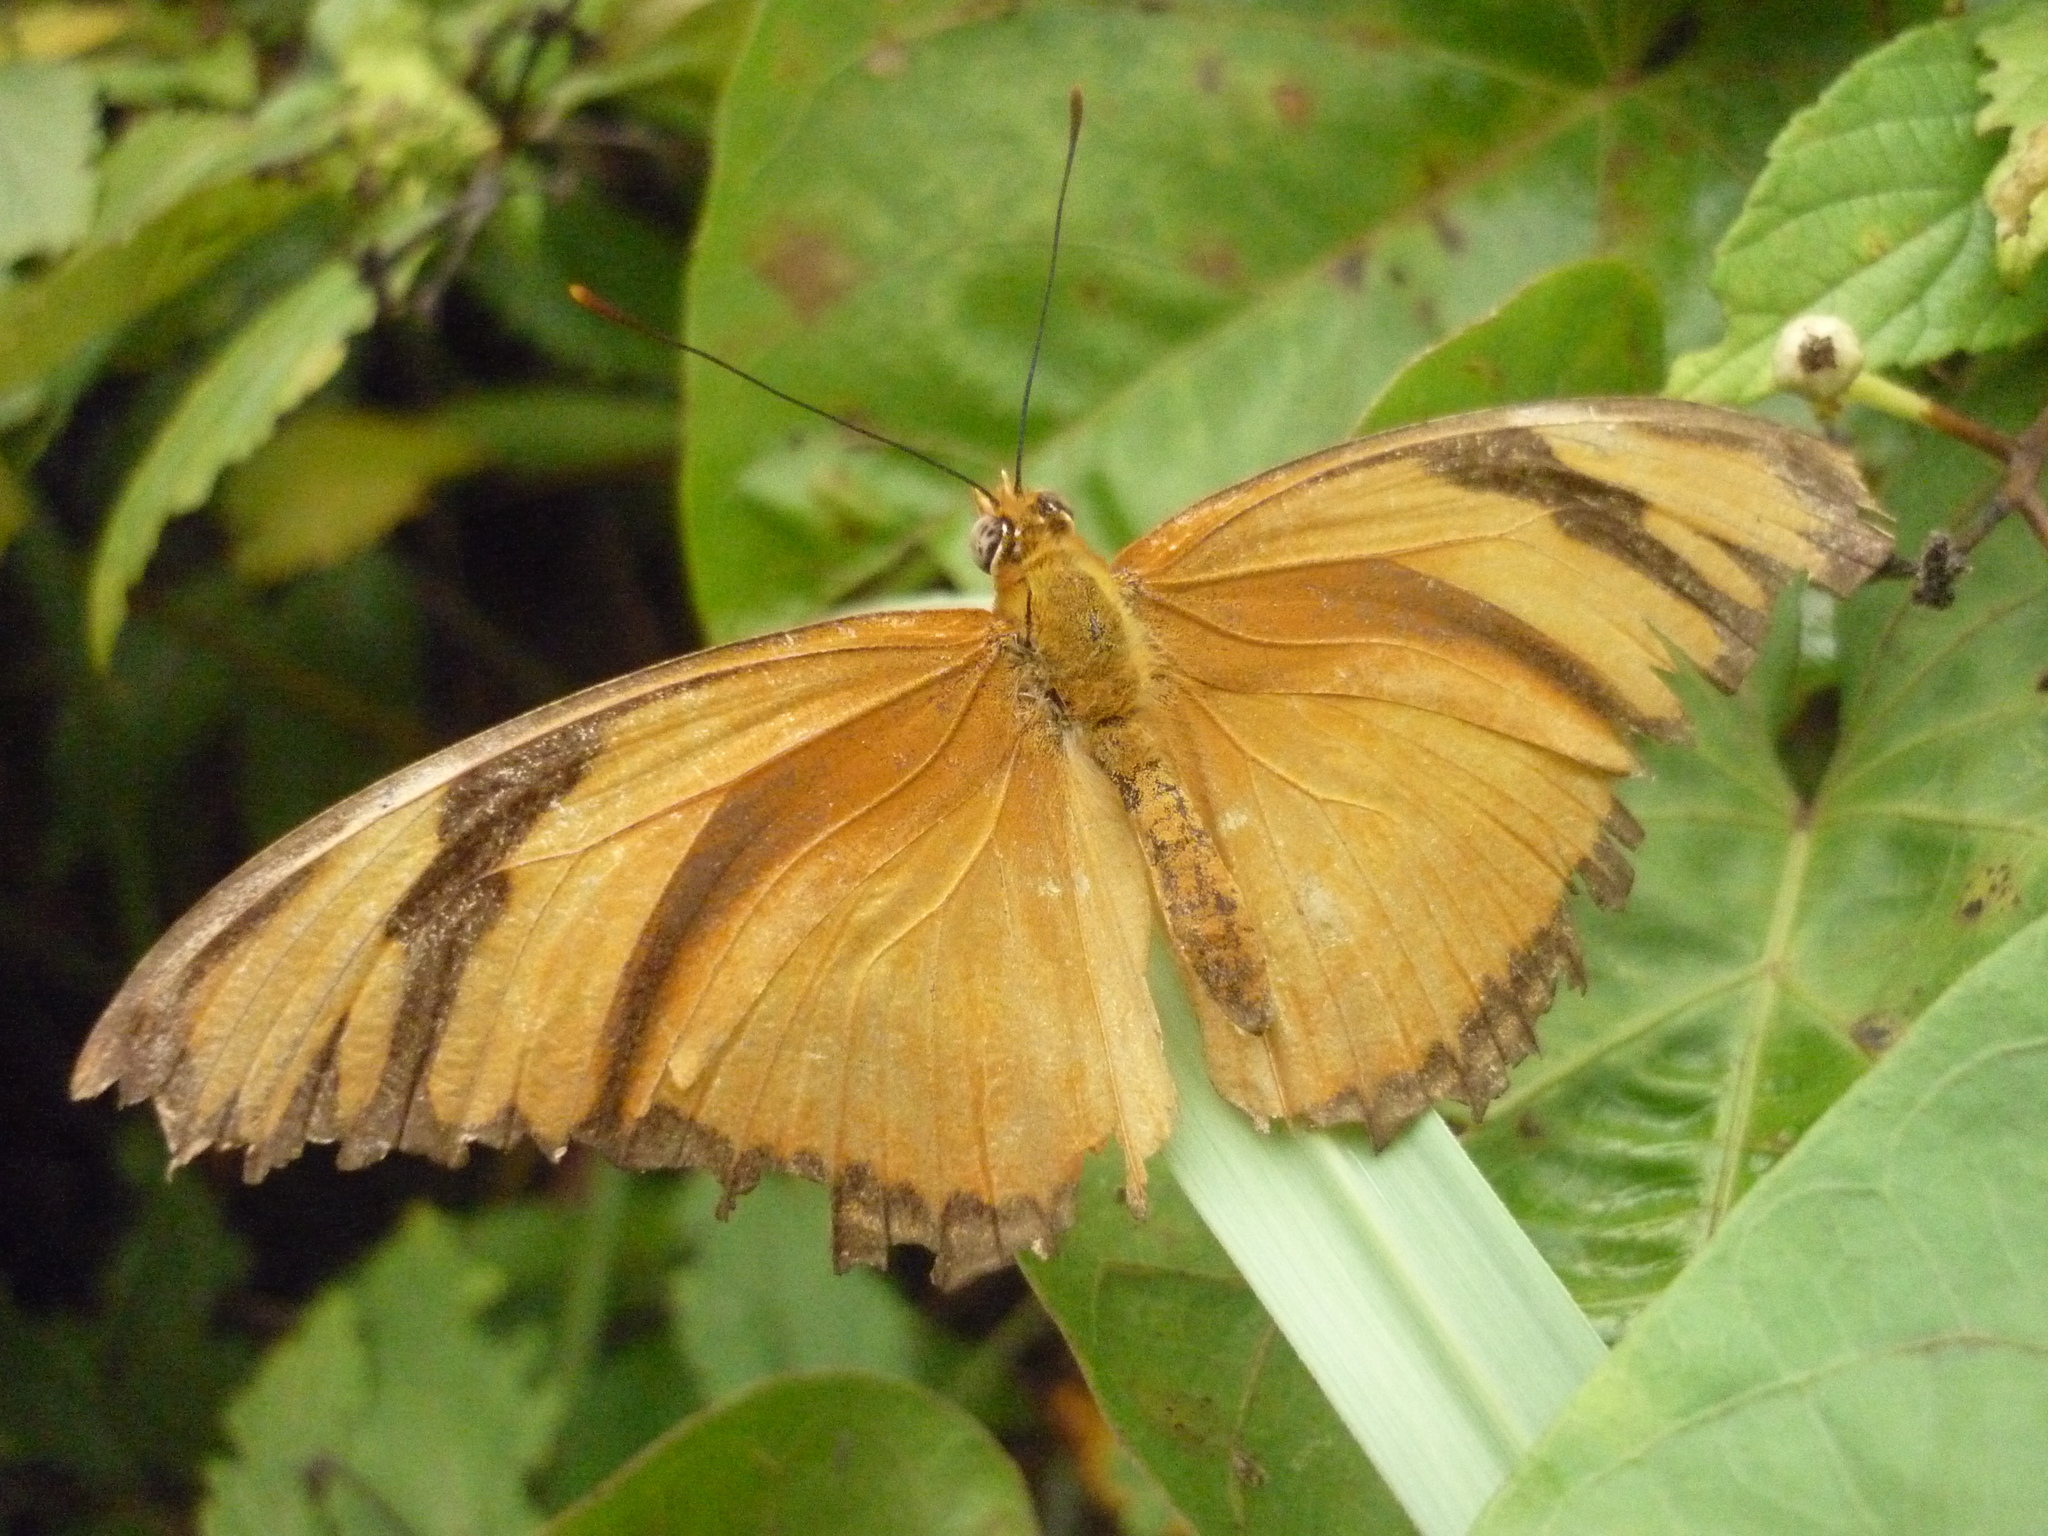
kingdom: Animalia
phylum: Arthropoda
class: Insecta
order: Lepidoptera
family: Nymphalidae
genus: Dryas
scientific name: Dryas iulia
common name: Flambeau
